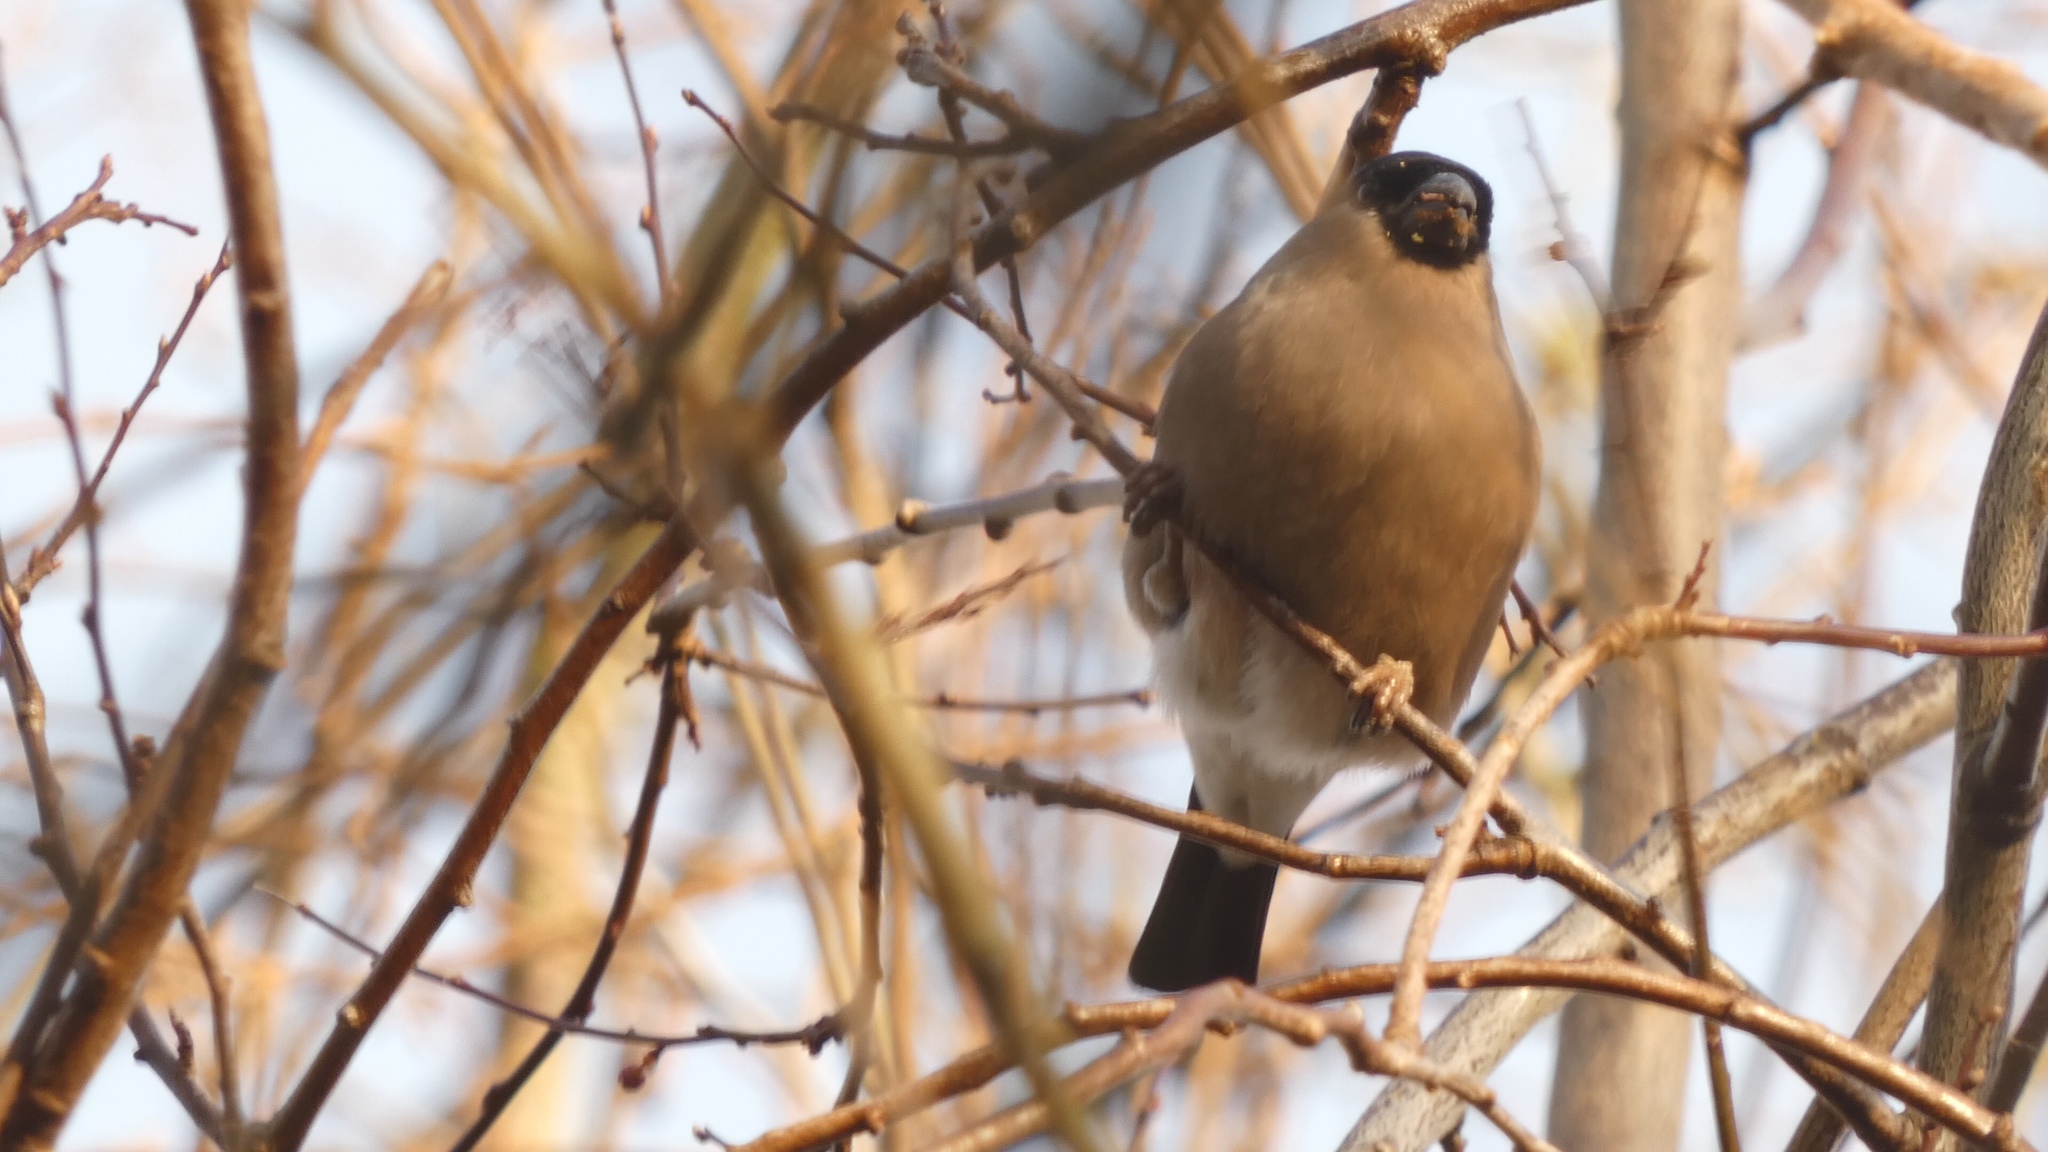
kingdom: Animalia
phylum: Chordata
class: Aves
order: Passeriformes
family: Fringillidae
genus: Pyrrhula
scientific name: Pyrrhula pyrrhula
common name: Eurasian bullfinch
